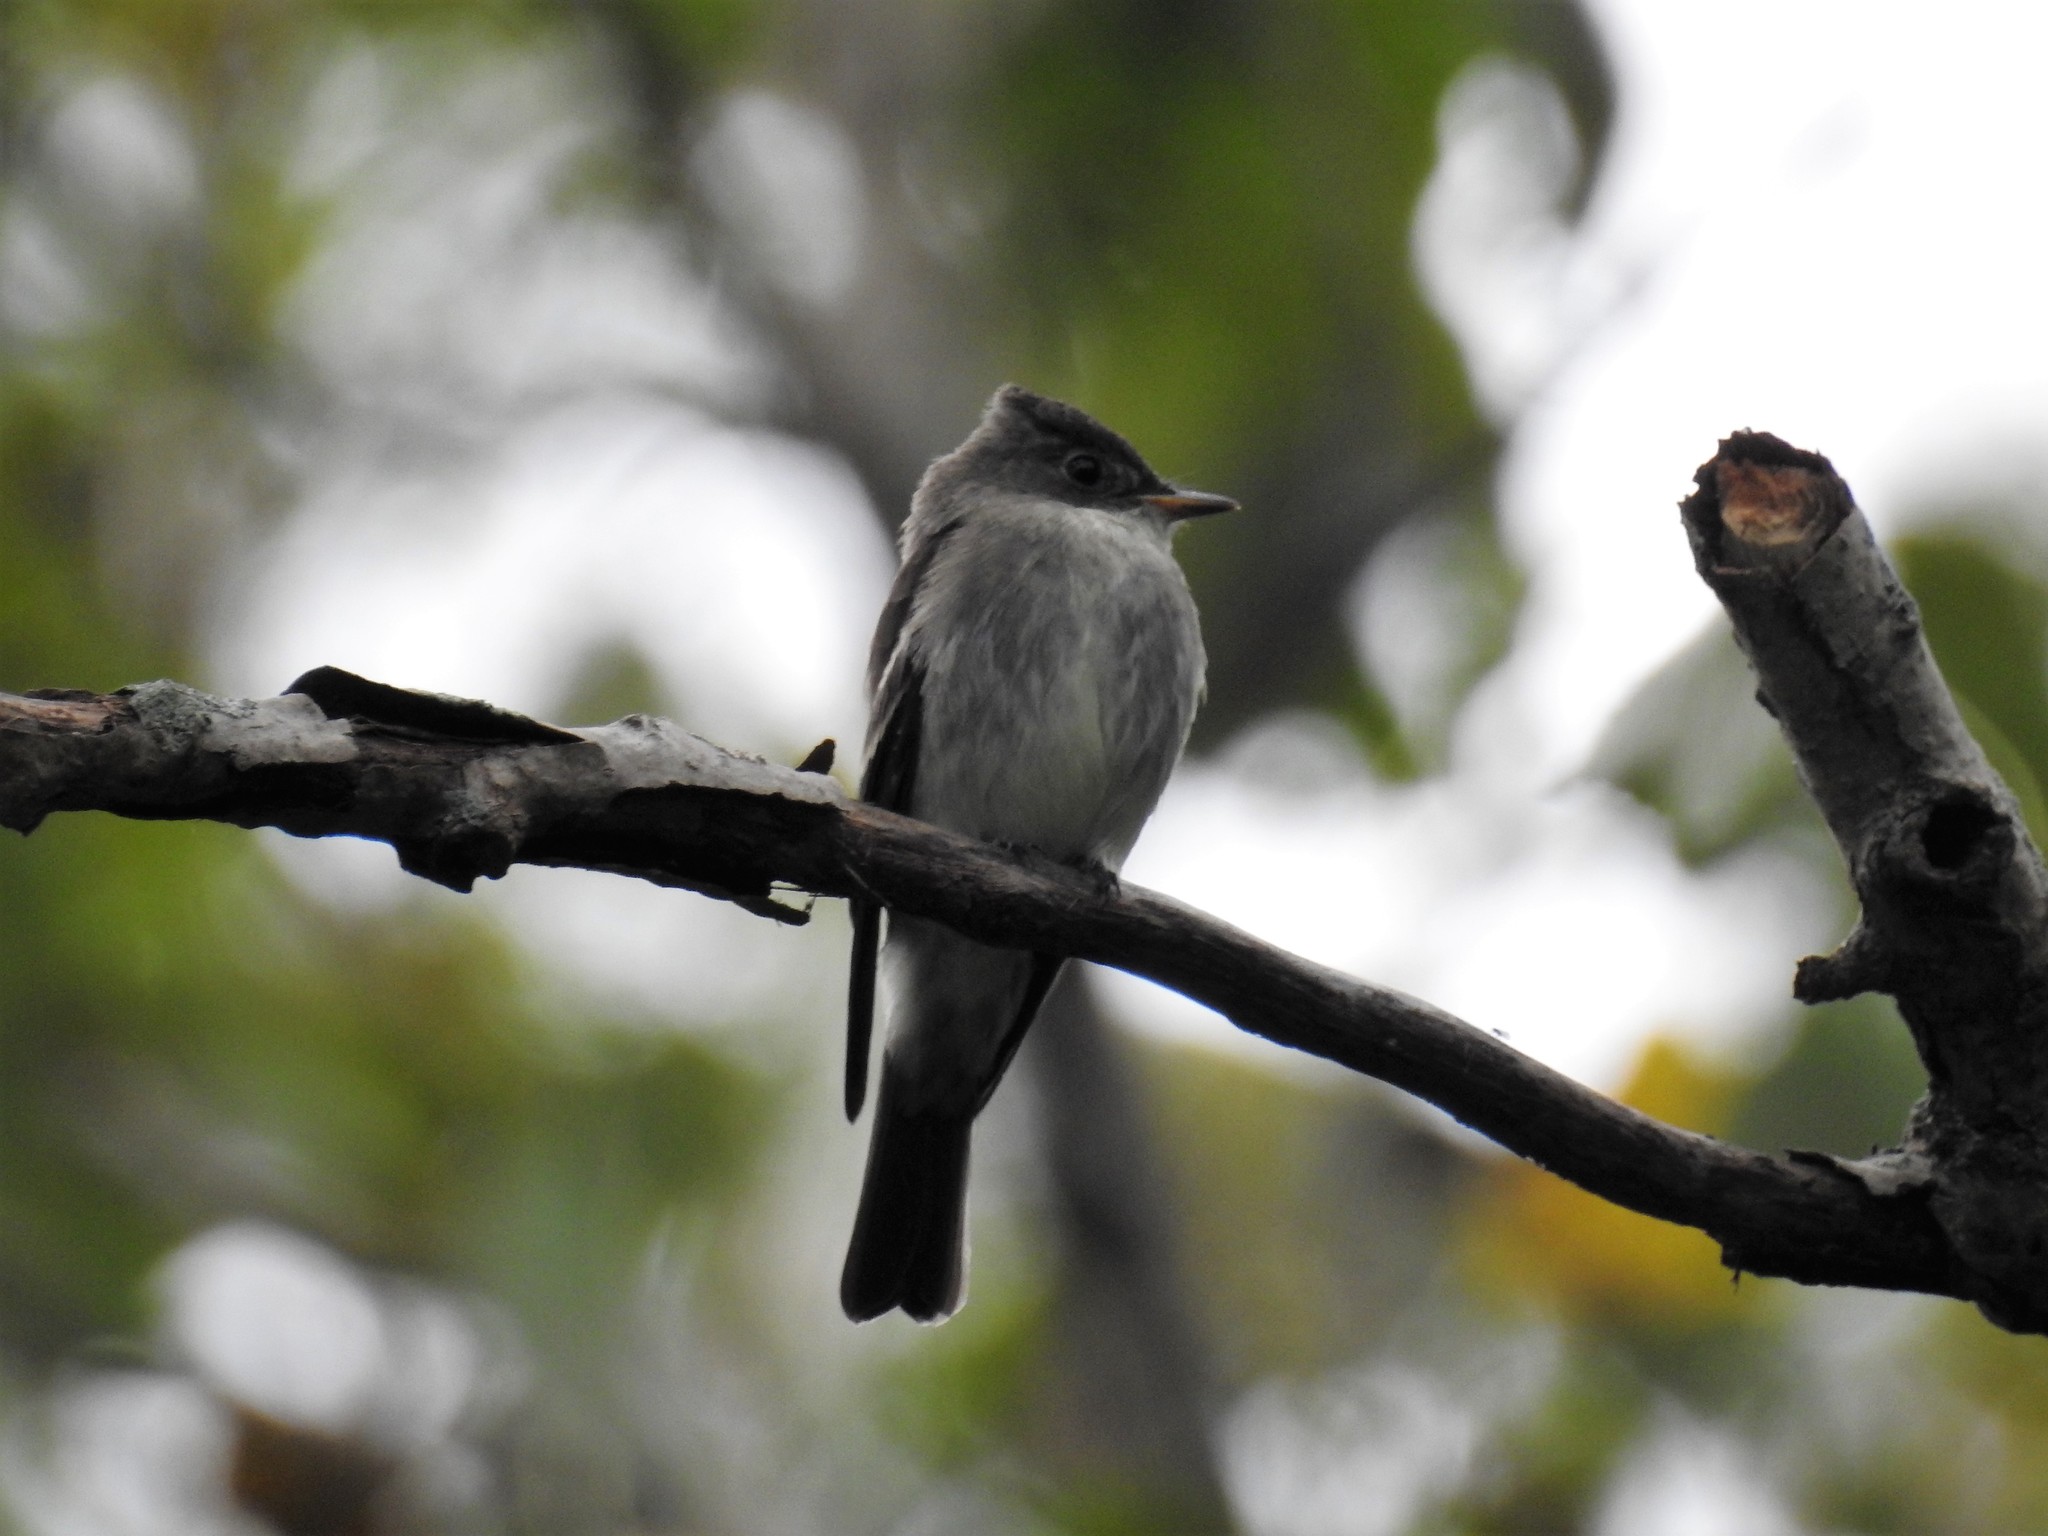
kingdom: Animalia
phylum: Chordata
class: Aves
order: Passeriformes
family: Tyrannidae
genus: Contopus
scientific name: Contopus virens
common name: Eastern wood-pewee
